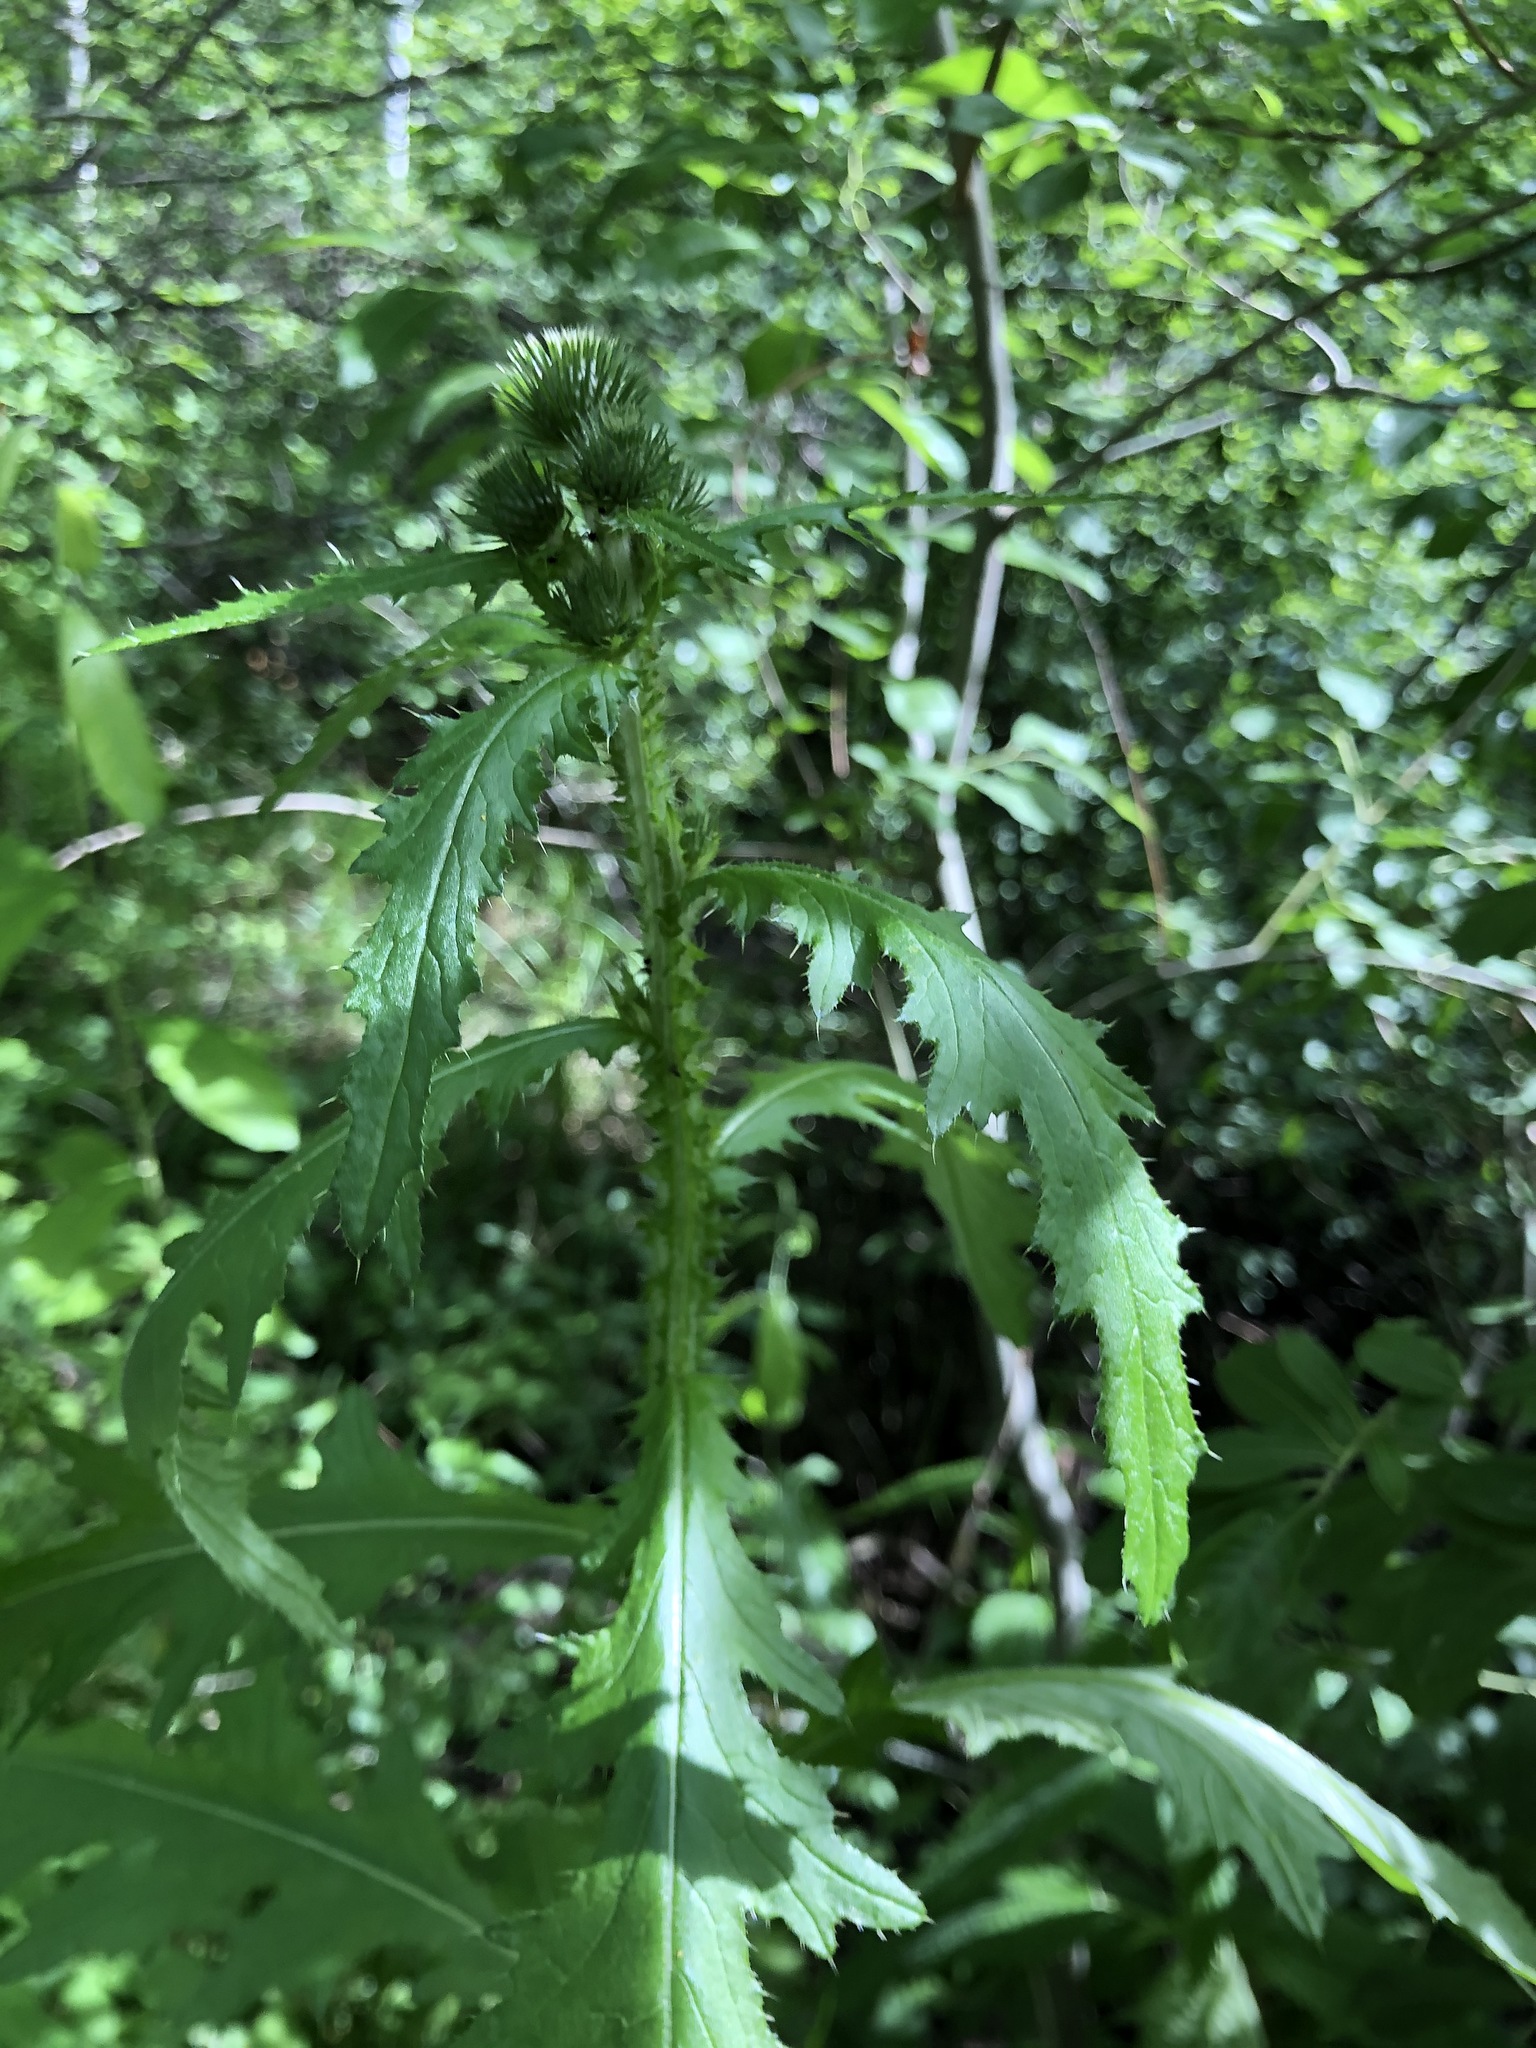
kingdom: Plantae
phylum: Tracheophyta
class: Magnoliopsida
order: Asterales
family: Asteraceae
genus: Carduus
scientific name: Carduus crispus
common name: Welted thistle
